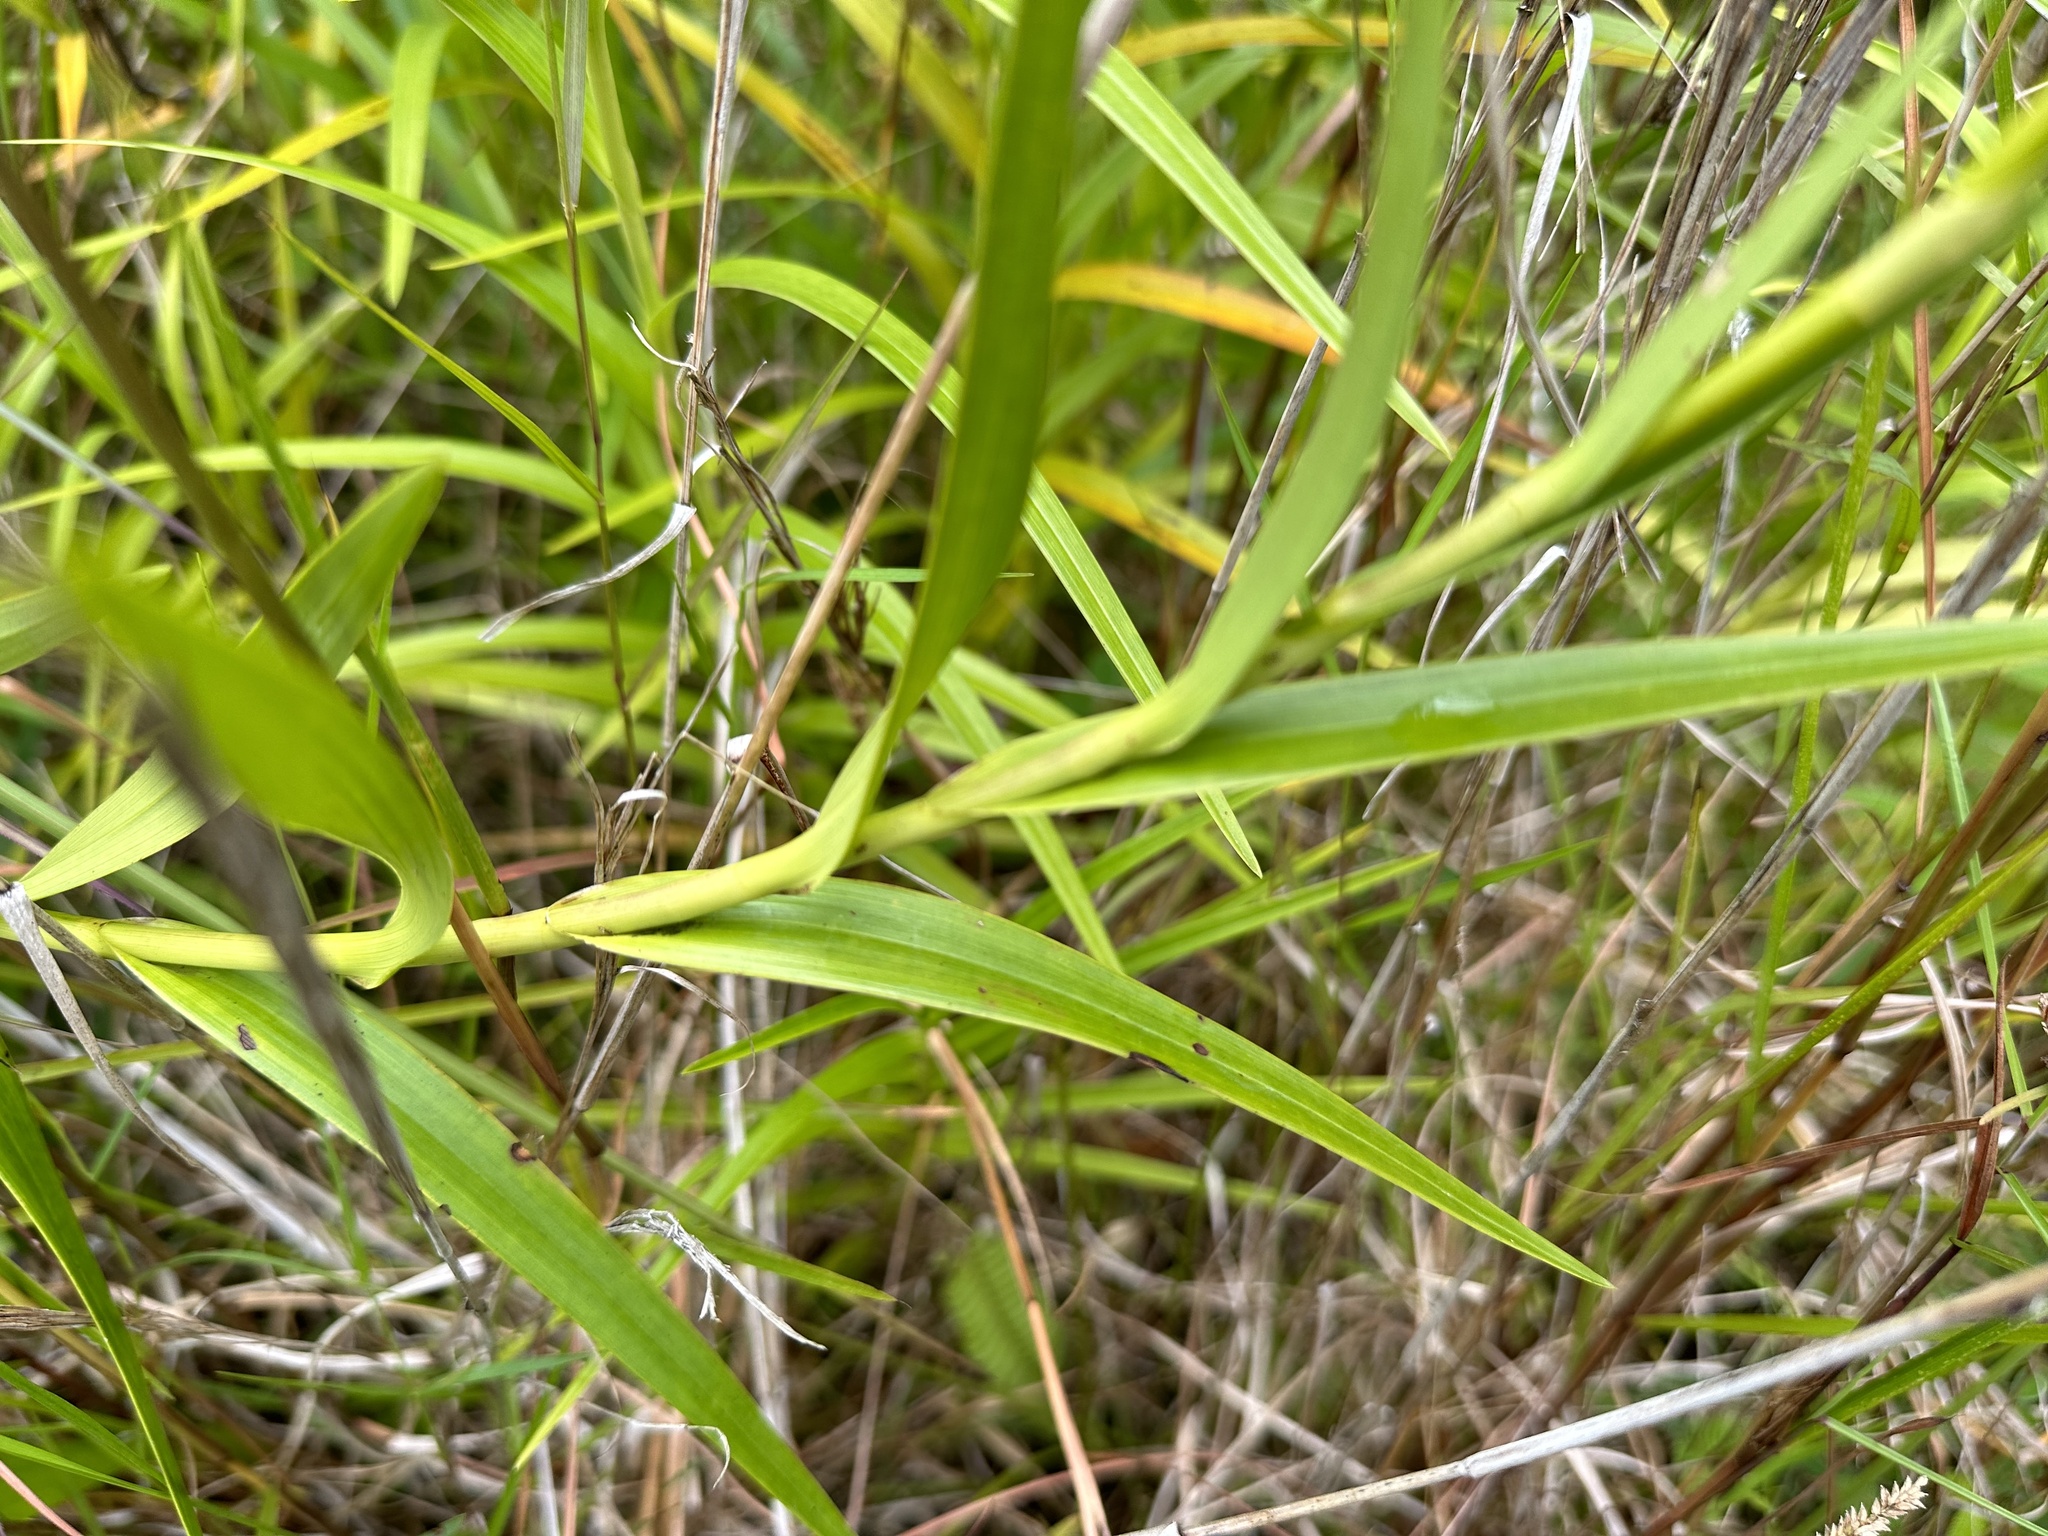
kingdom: Plantae
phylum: Tracheophyta
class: Liliopsida
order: Asparagales
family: Orchidaceae
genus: Arundina
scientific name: Arundina graminifolia
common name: Bamboo orchid
